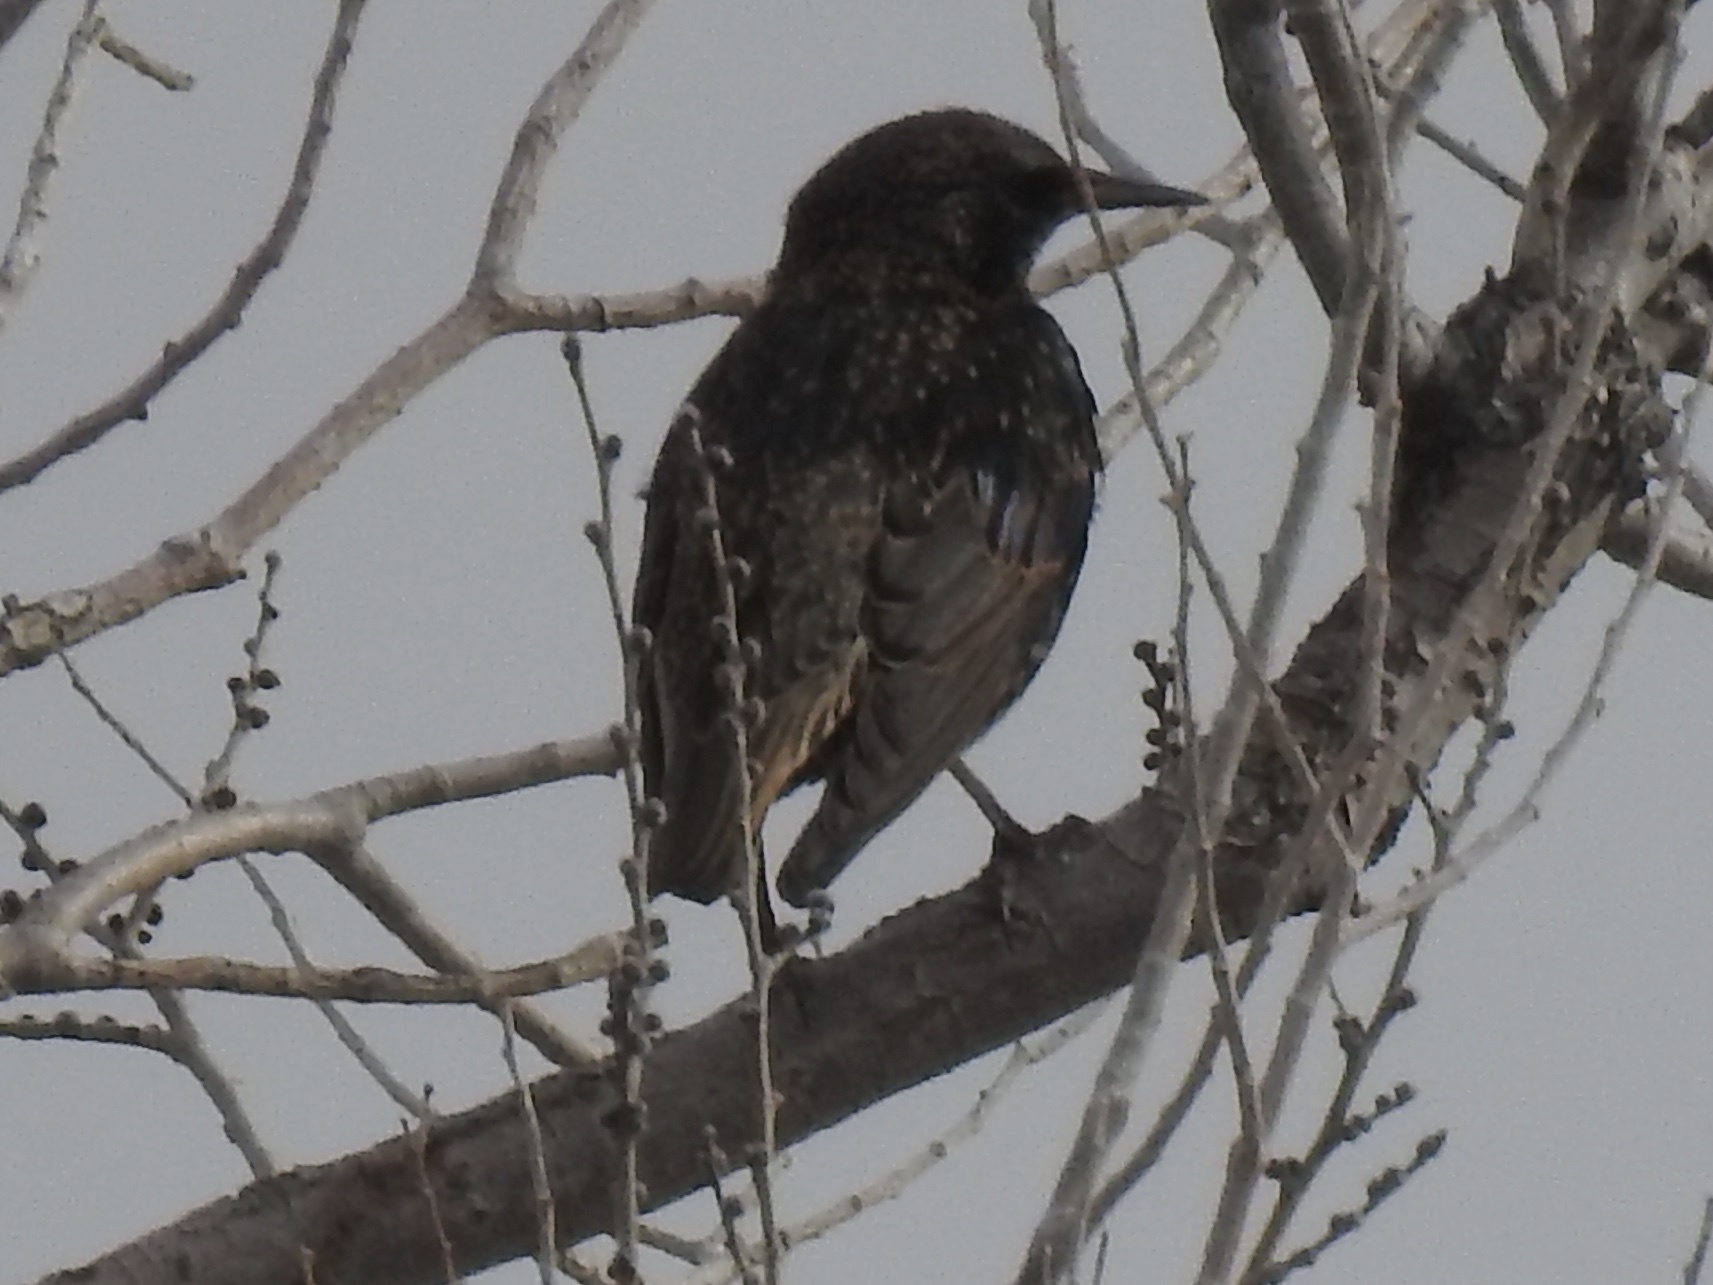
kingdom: Animalia
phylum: Chordata
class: Aves
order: Passeriformes
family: Sturnidae
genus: Sturnus
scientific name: Sturnus vulgaris
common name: Common starling
